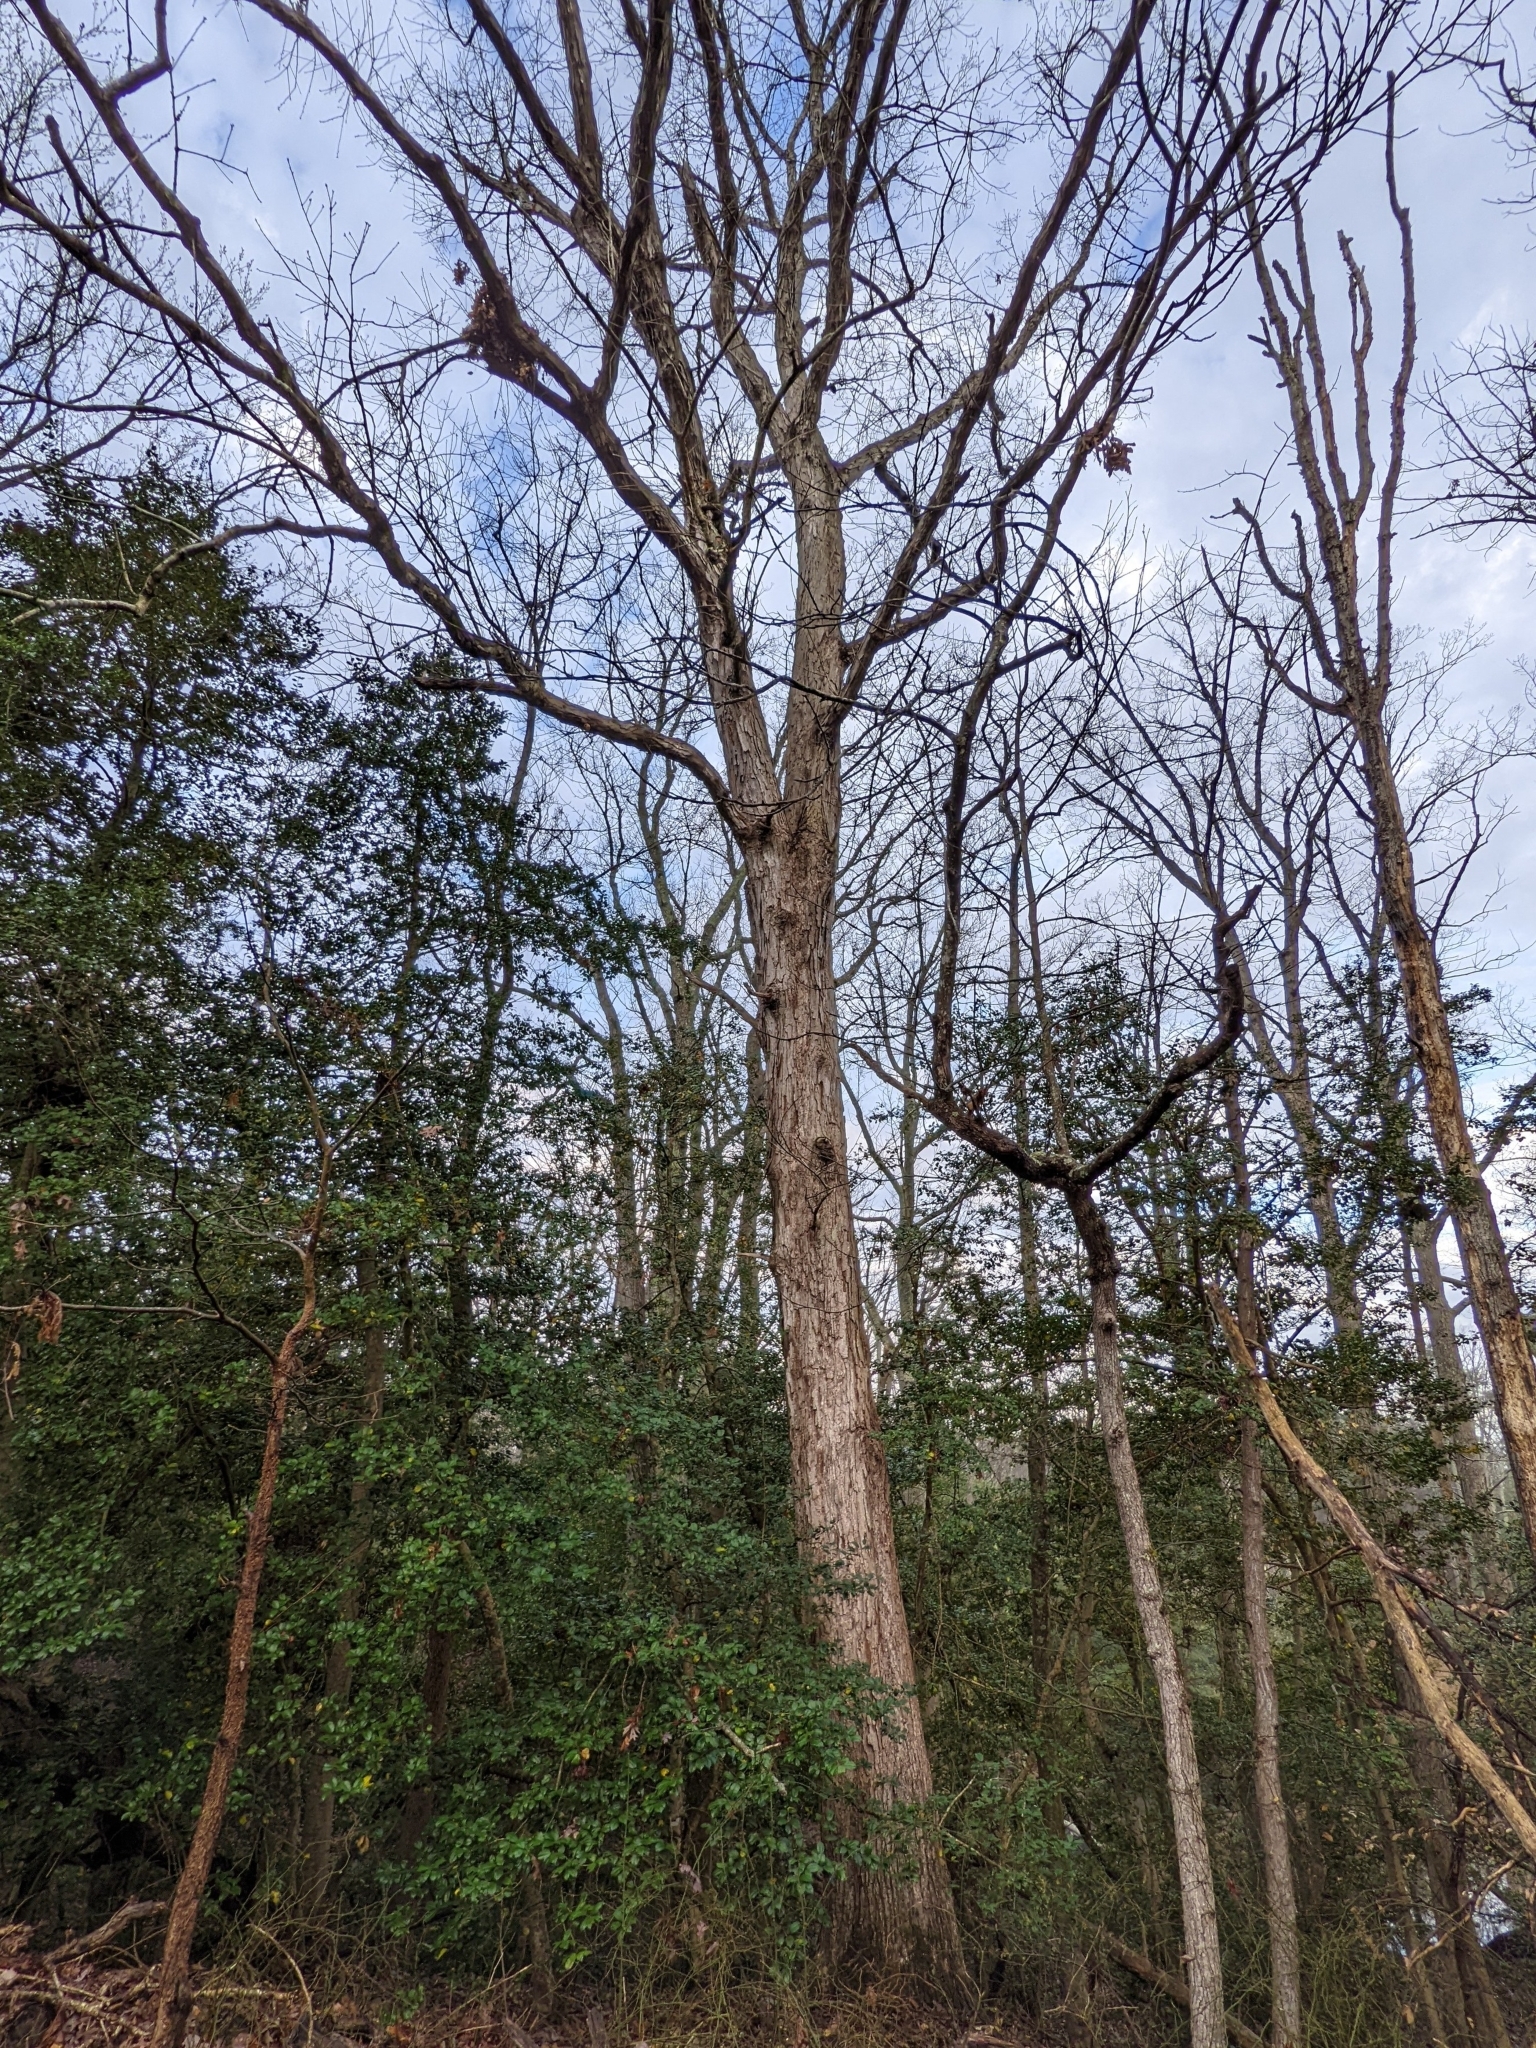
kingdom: Plantae
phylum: Tracheophyta
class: Magnoliopsida
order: Fagales
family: Fagaceae
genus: Quercus
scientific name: Quercus alba
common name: White oak
